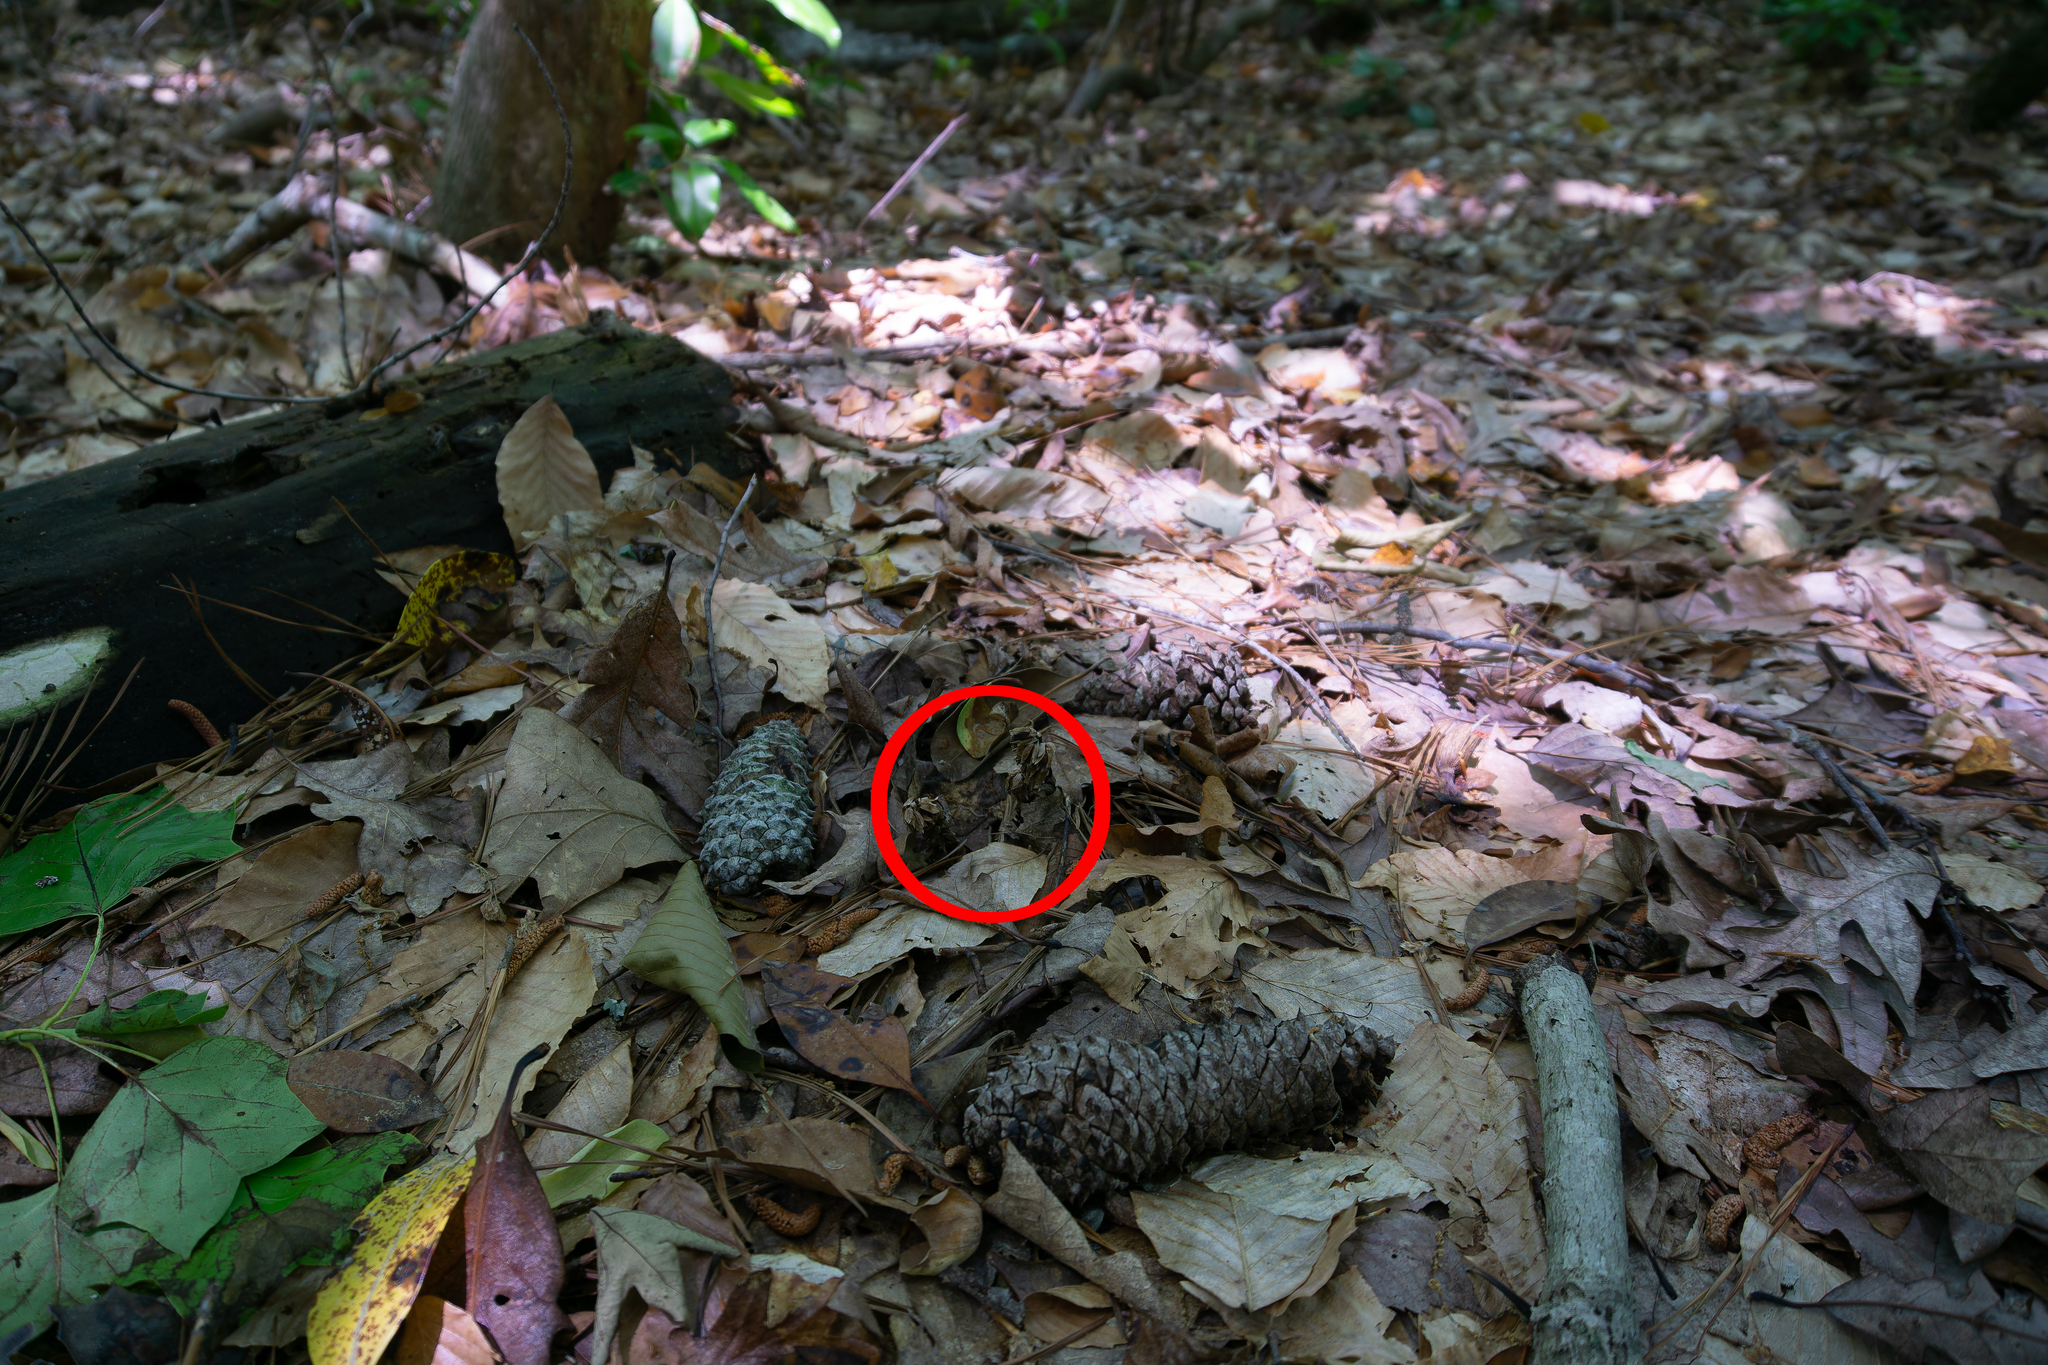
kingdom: Plantae
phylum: Tracheophyta
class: Magnoliopsida
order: Ericales
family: Ericaceae
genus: Monotropsis
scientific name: Monotropsis odorata
